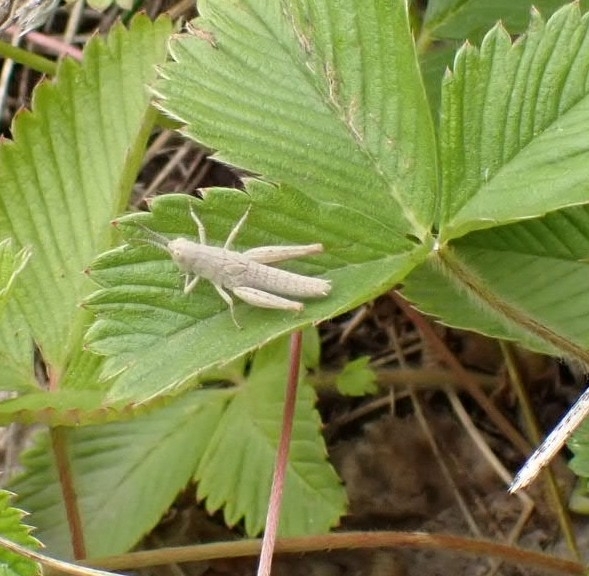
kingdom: Animalia
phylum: Arthropoda
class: Insecta
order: Orthoptera
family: Acrididae
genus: Gomphocerippus
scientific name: Gomphocerippus rufus
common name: Rufous grasshopper
